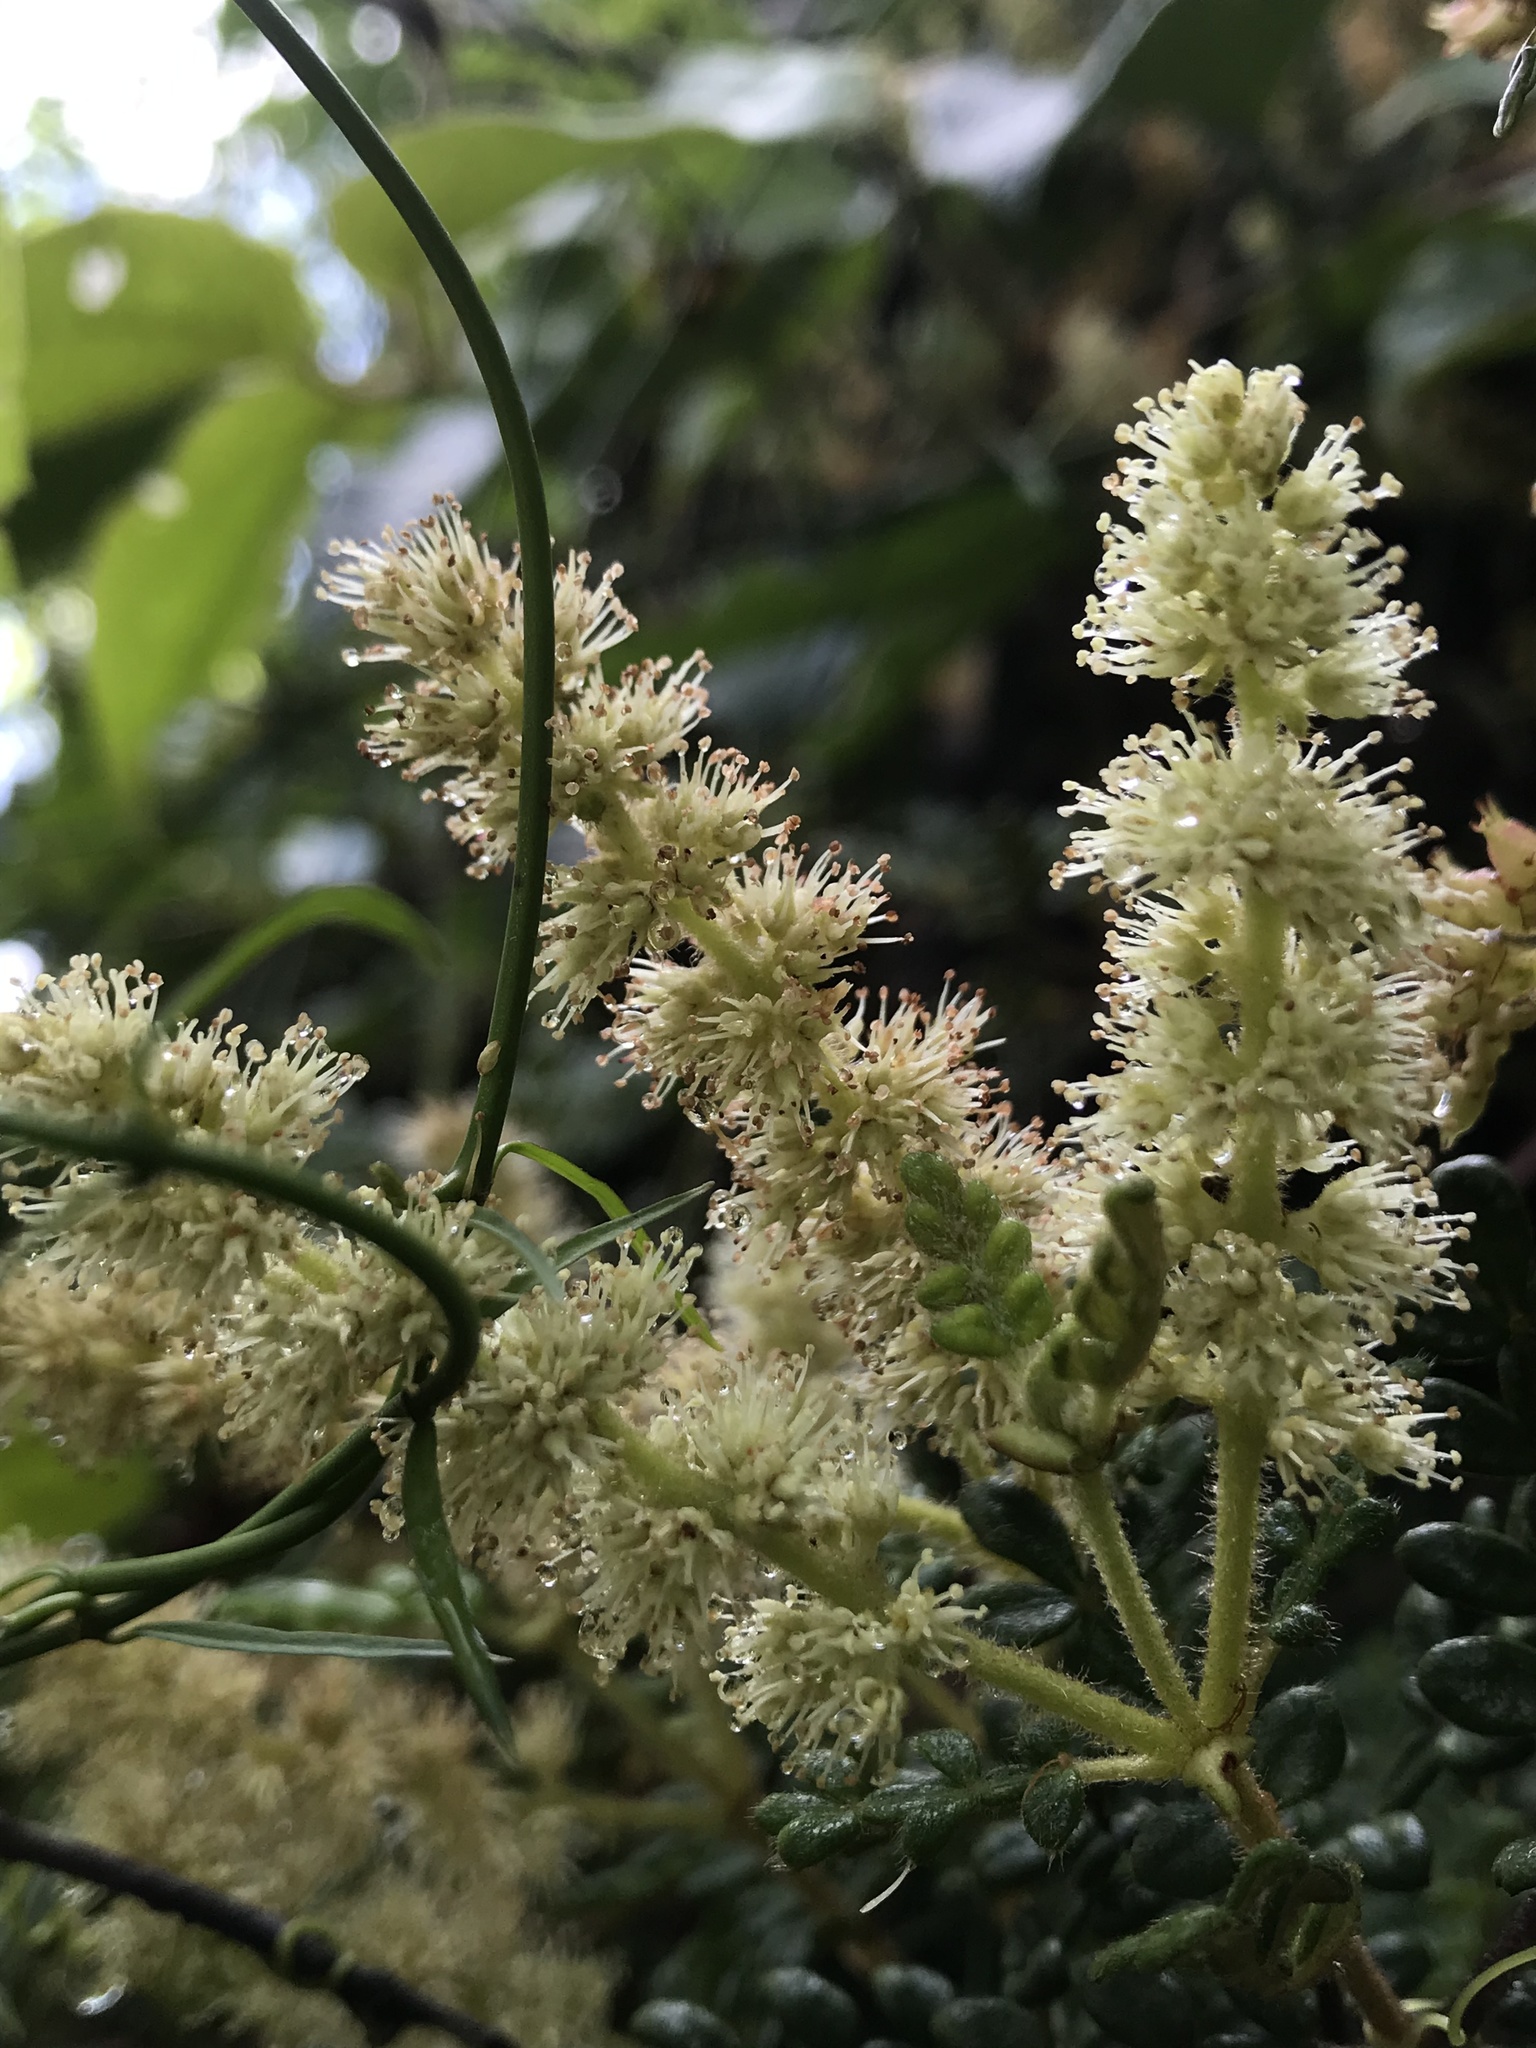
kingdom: Plantae
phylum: Tracheophyta
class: Magnoliopsida
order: Oxalidales
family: Cunoniaceae
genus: Weinmannia
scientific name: Weinmannia tomentosa
